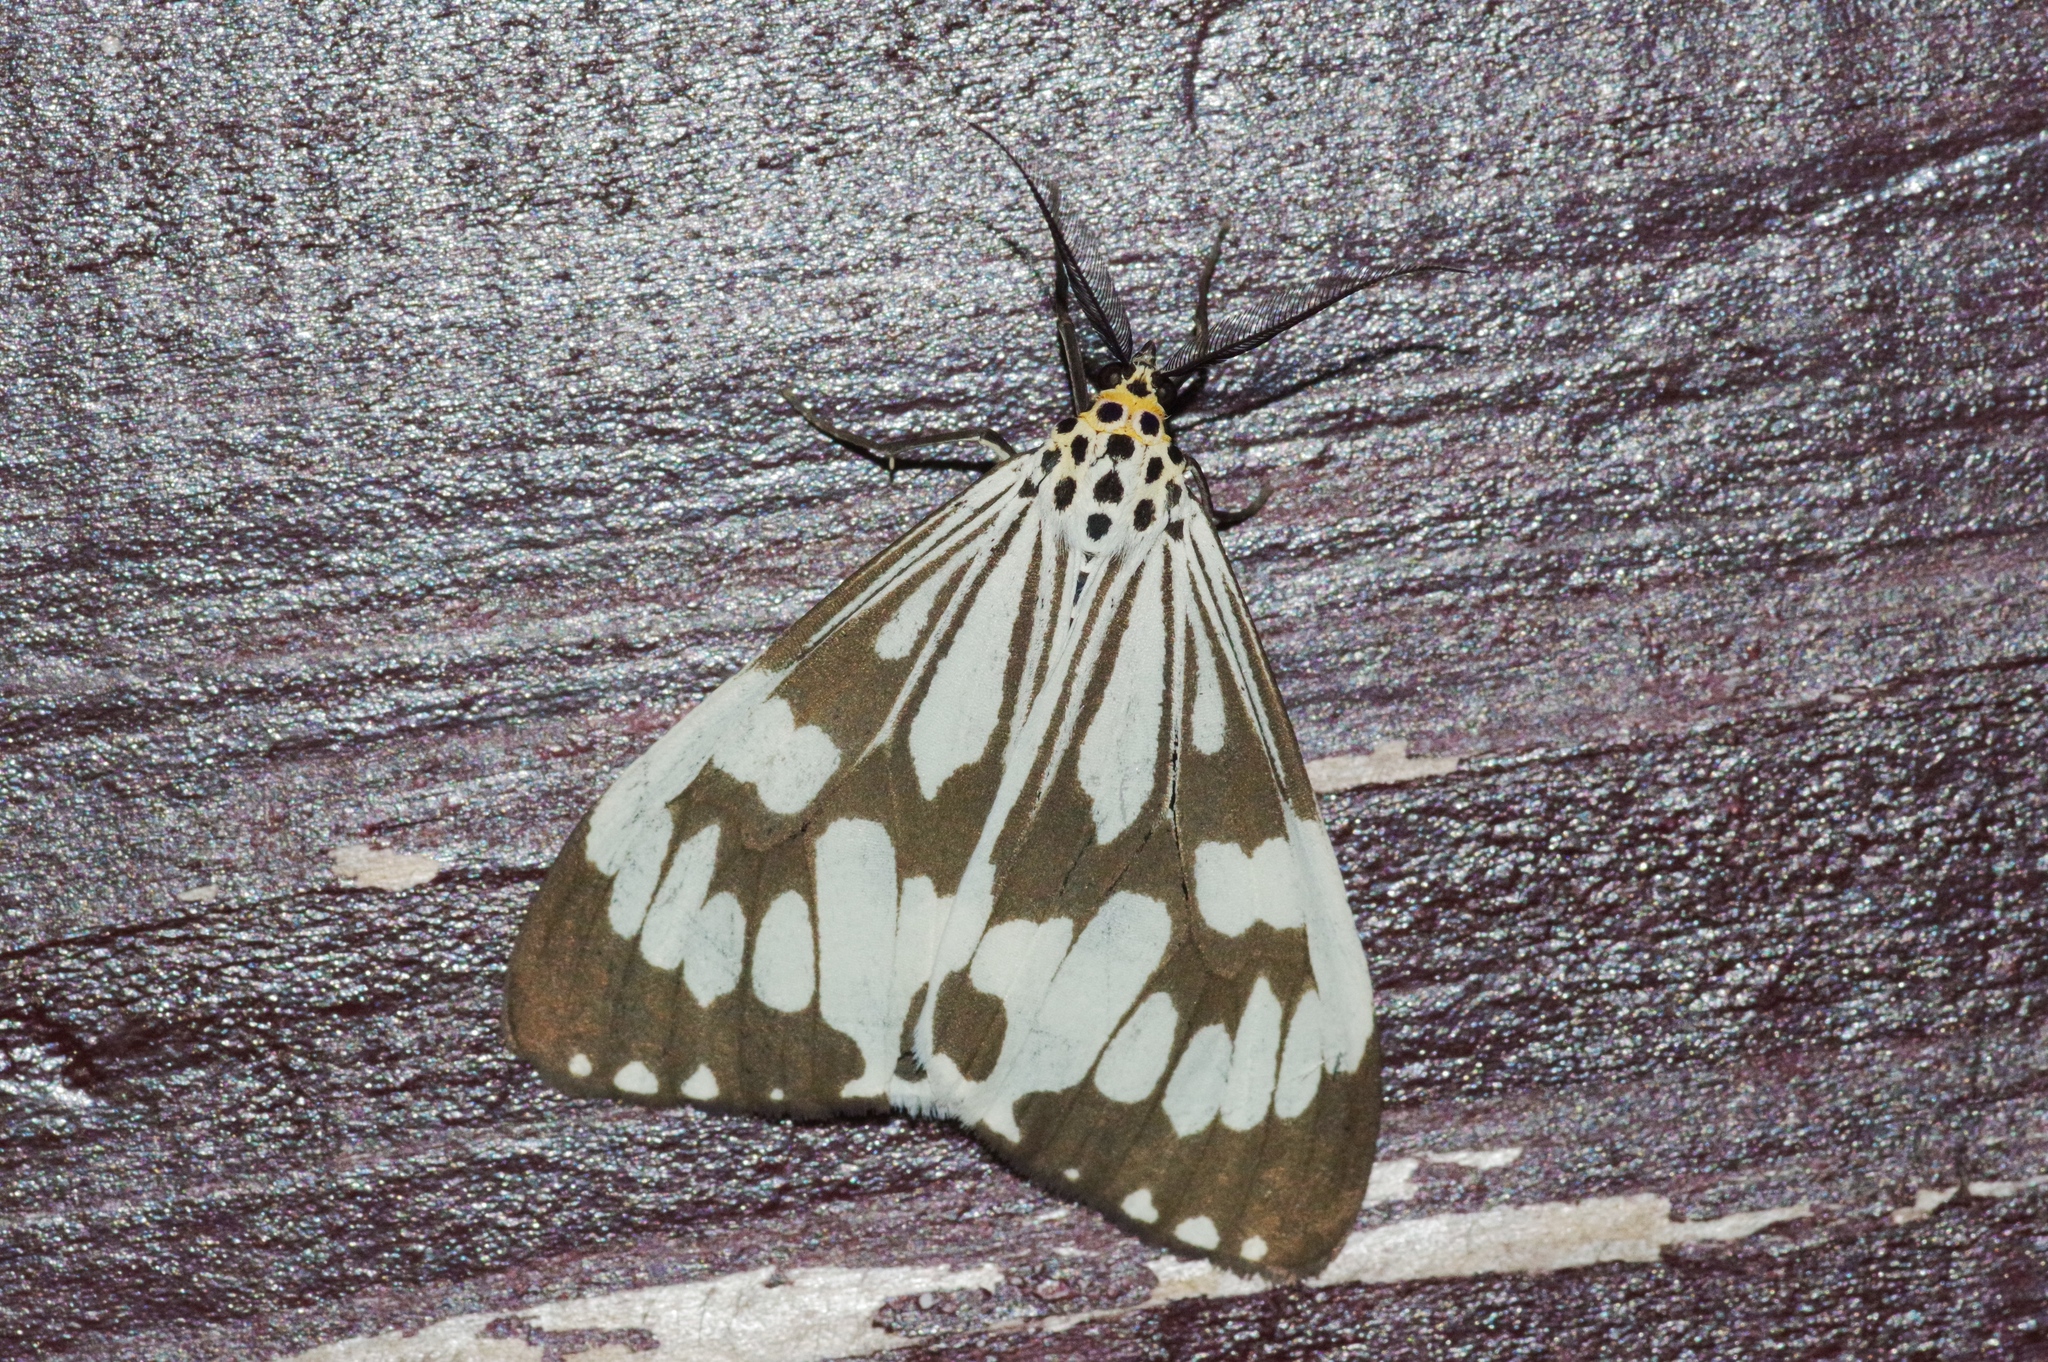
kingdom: Animalia
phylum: Arthropoda
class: Insecta
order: Lepidoptera
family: Erebidae
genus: Nyctemera
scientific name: Nyctemera adversata
